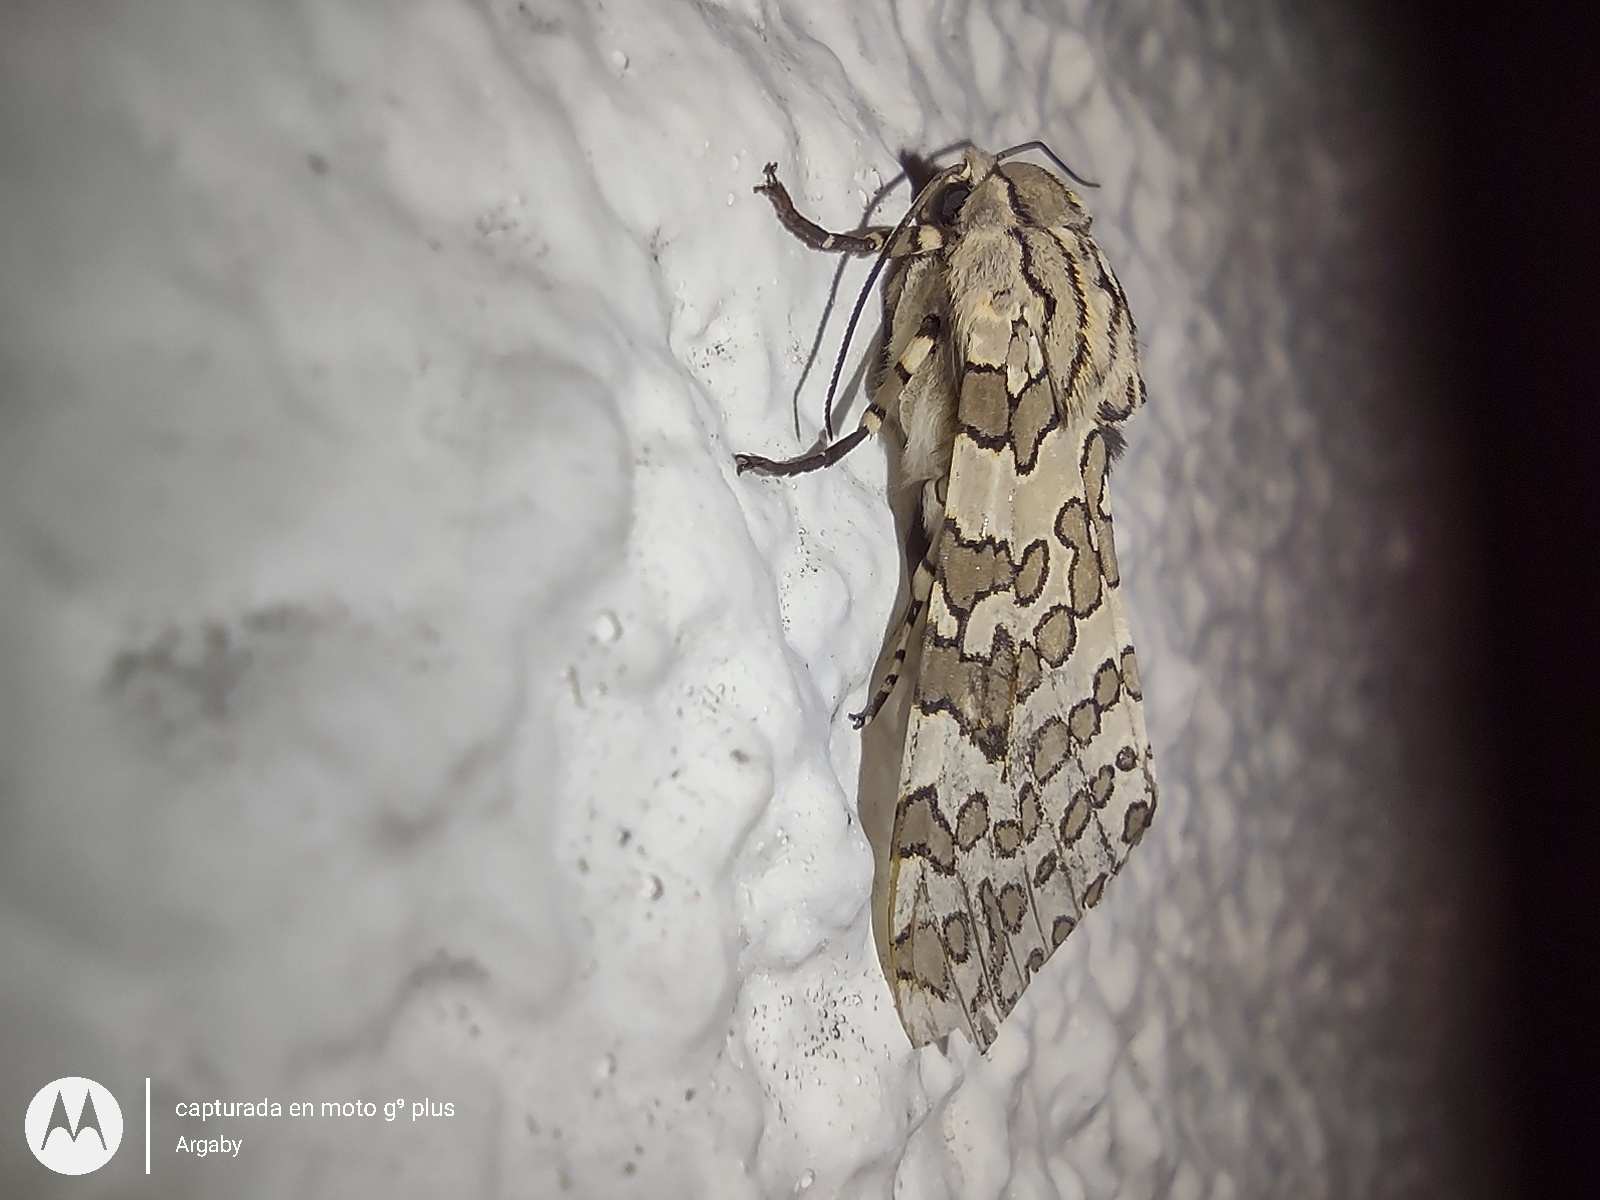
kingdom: Animalia
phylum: Arthropoda
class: Insecta
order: Lepidoptera
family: Erebidae
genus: Hypercompe
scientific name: Hypercompe indecisa
